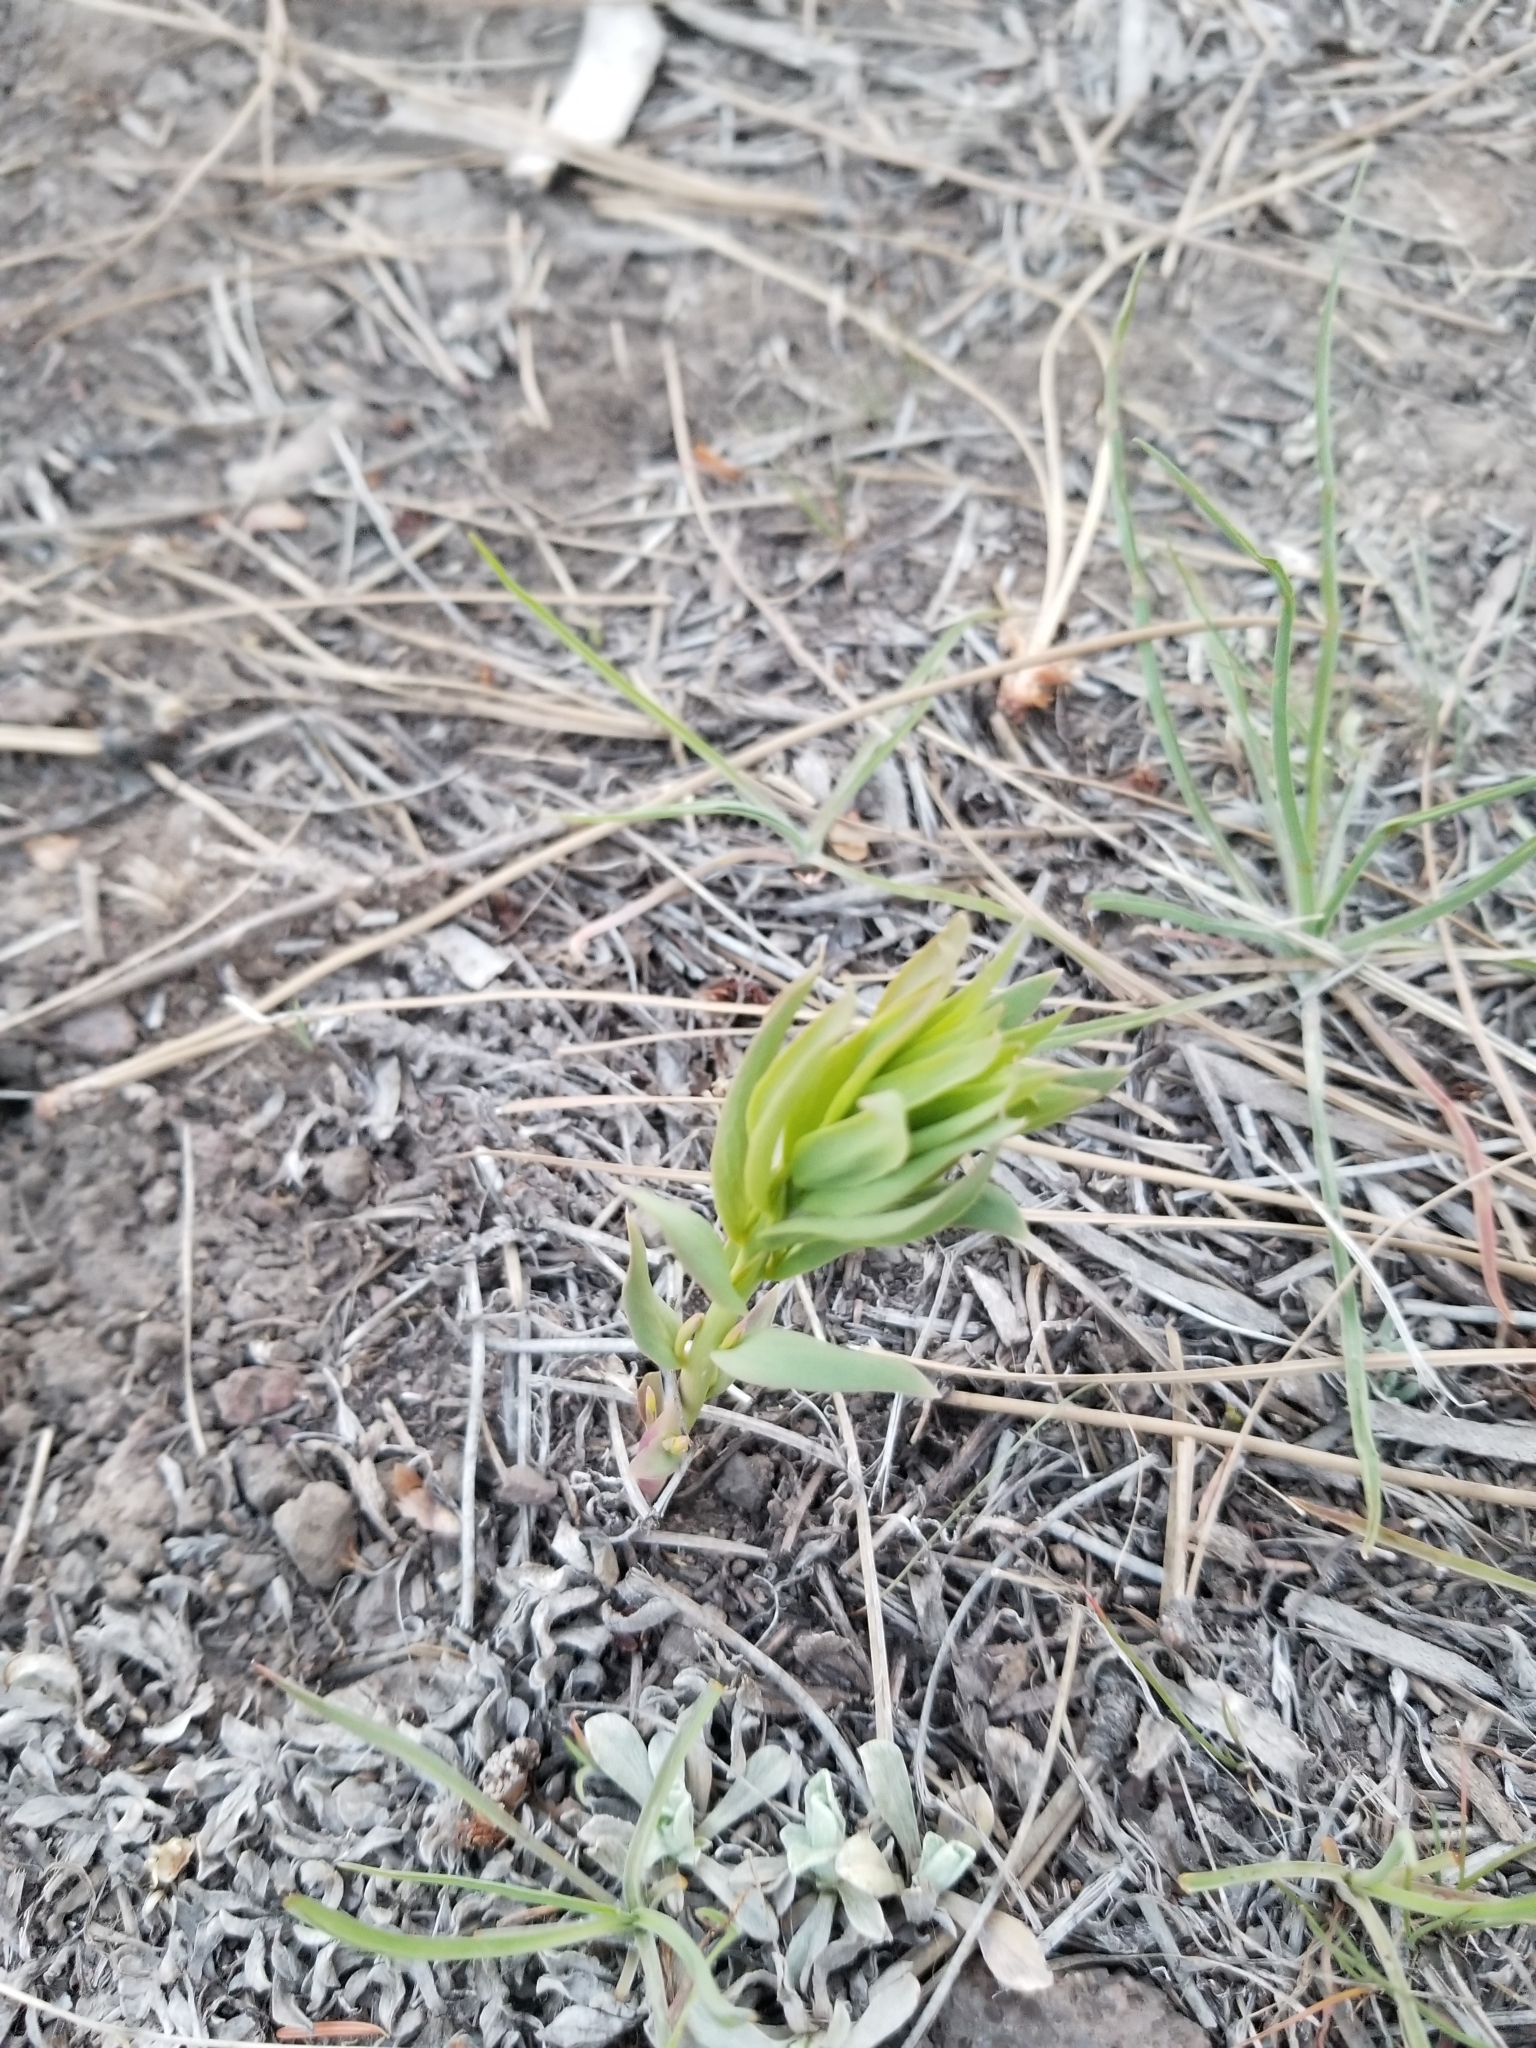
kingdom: Plantae
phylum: Tracheophyta
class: Magnoliopsida
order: Santalales
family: Comandraceae
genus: Comandra
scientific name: Comandra umbellata
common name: Bastard toadflax
